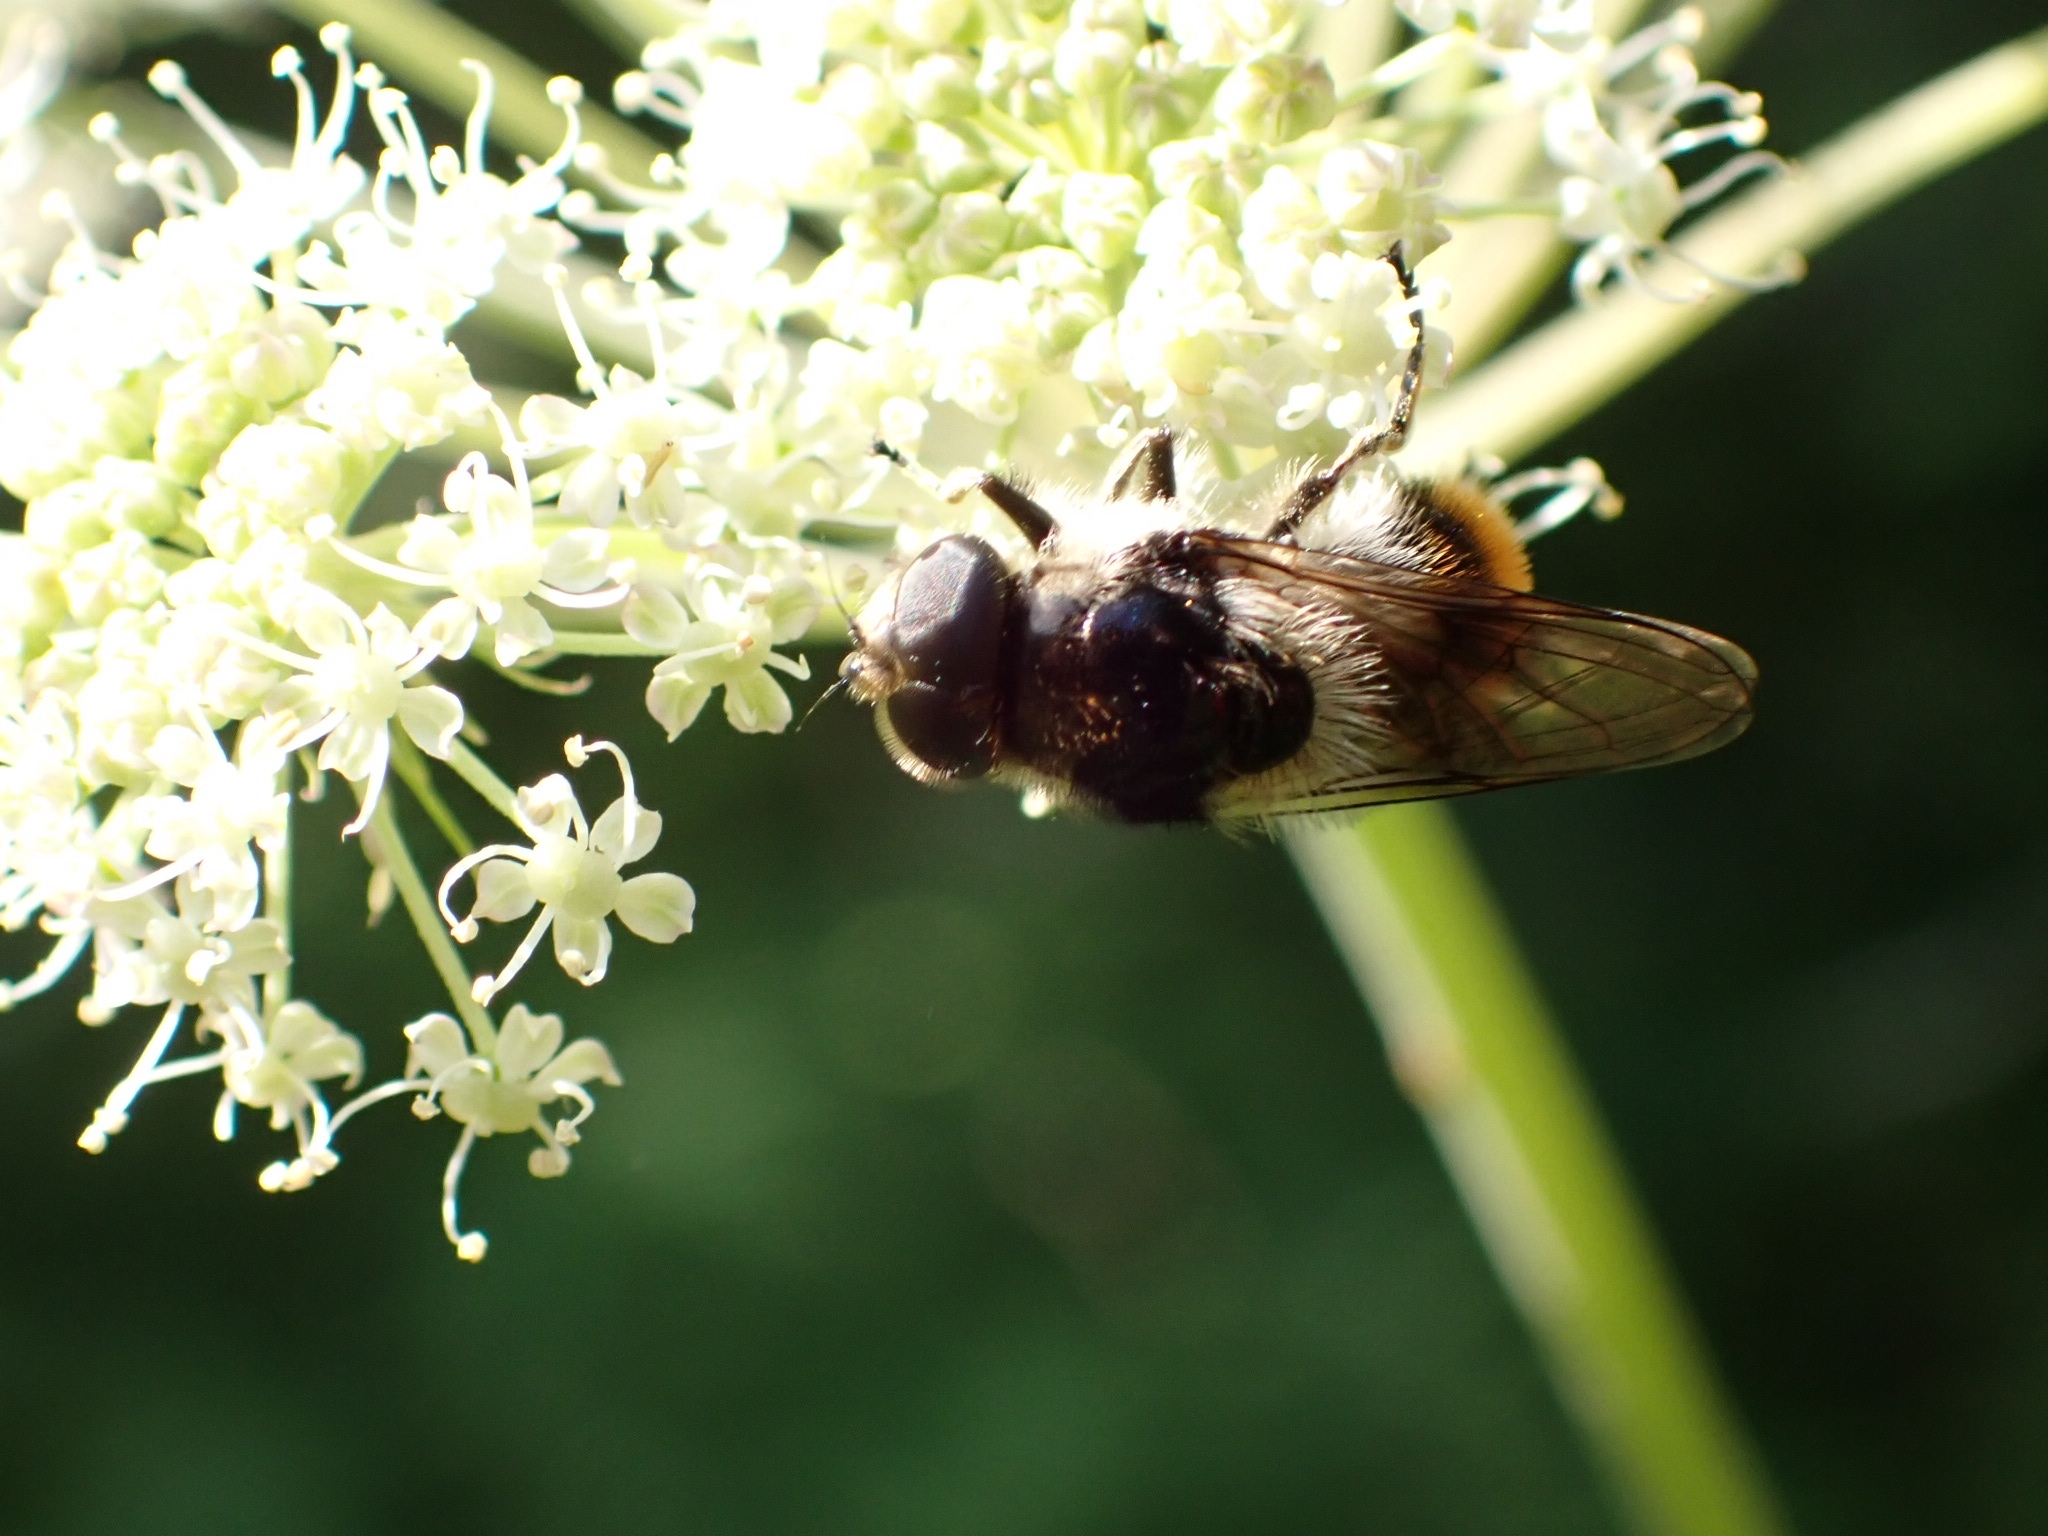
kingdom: Animalia
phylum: Arthropoda
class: Insecta
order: Diptera
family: Syrphidae
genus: Cheilosia
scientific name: Cheilosia illustrata
